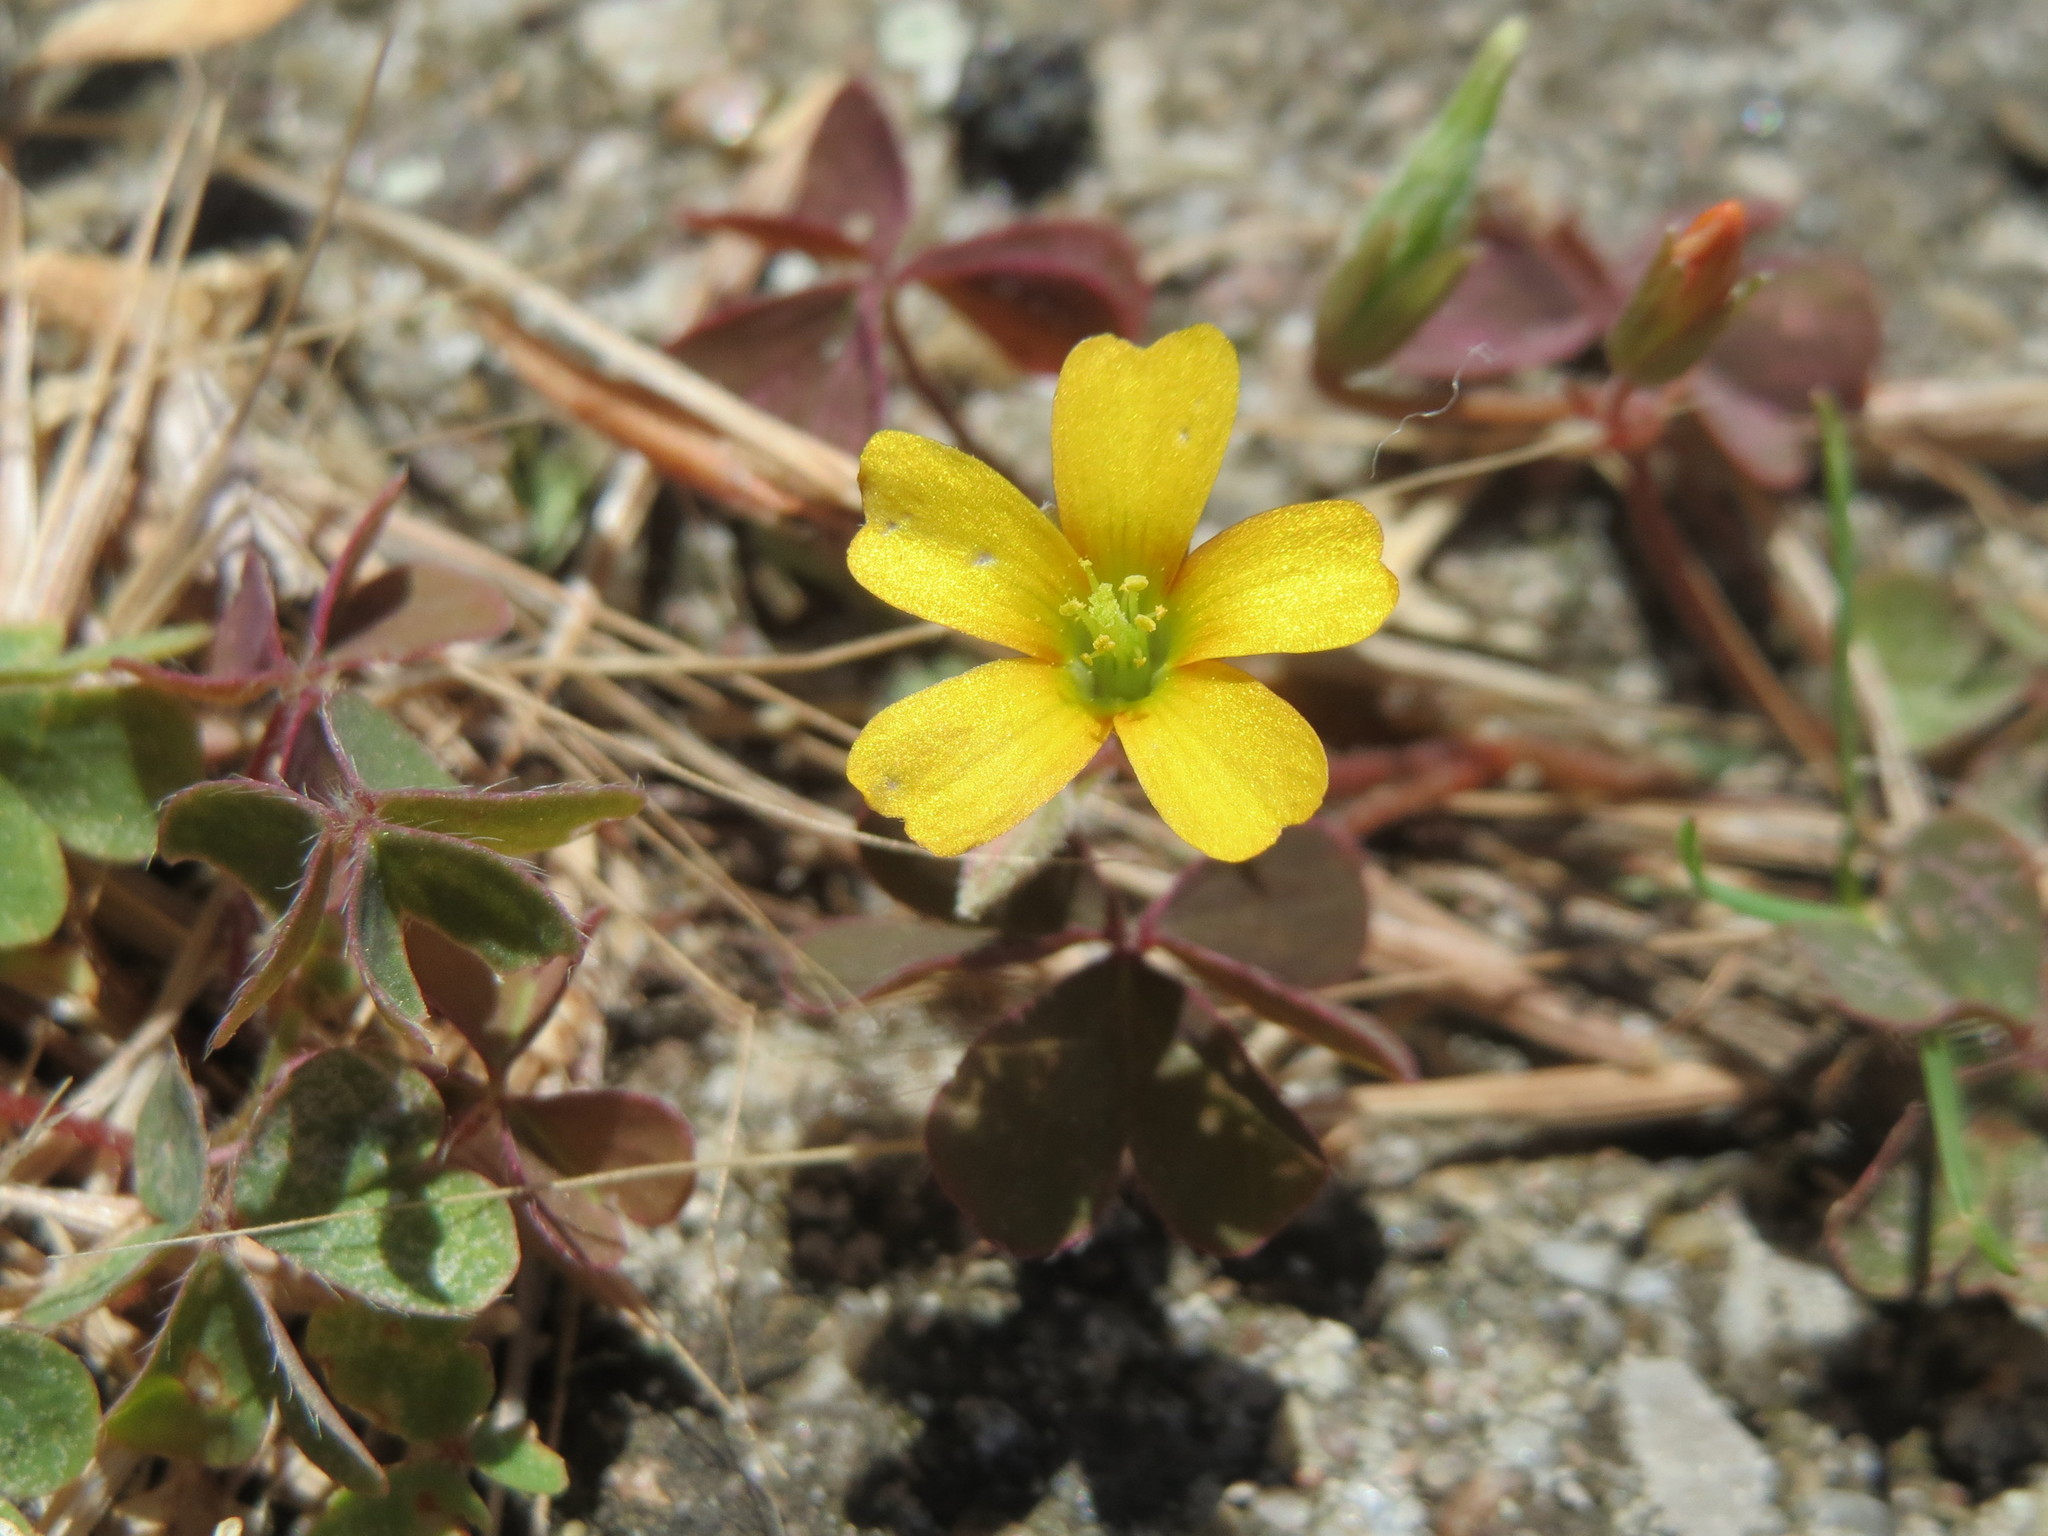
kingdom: Plantae
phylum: Tracheophyta
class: Magnoliopsida
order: Oxalidales
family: Oxalidaceae
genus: Oxalis
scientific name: Oxalis corniculata
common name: Procumbent yellow-sorrel
